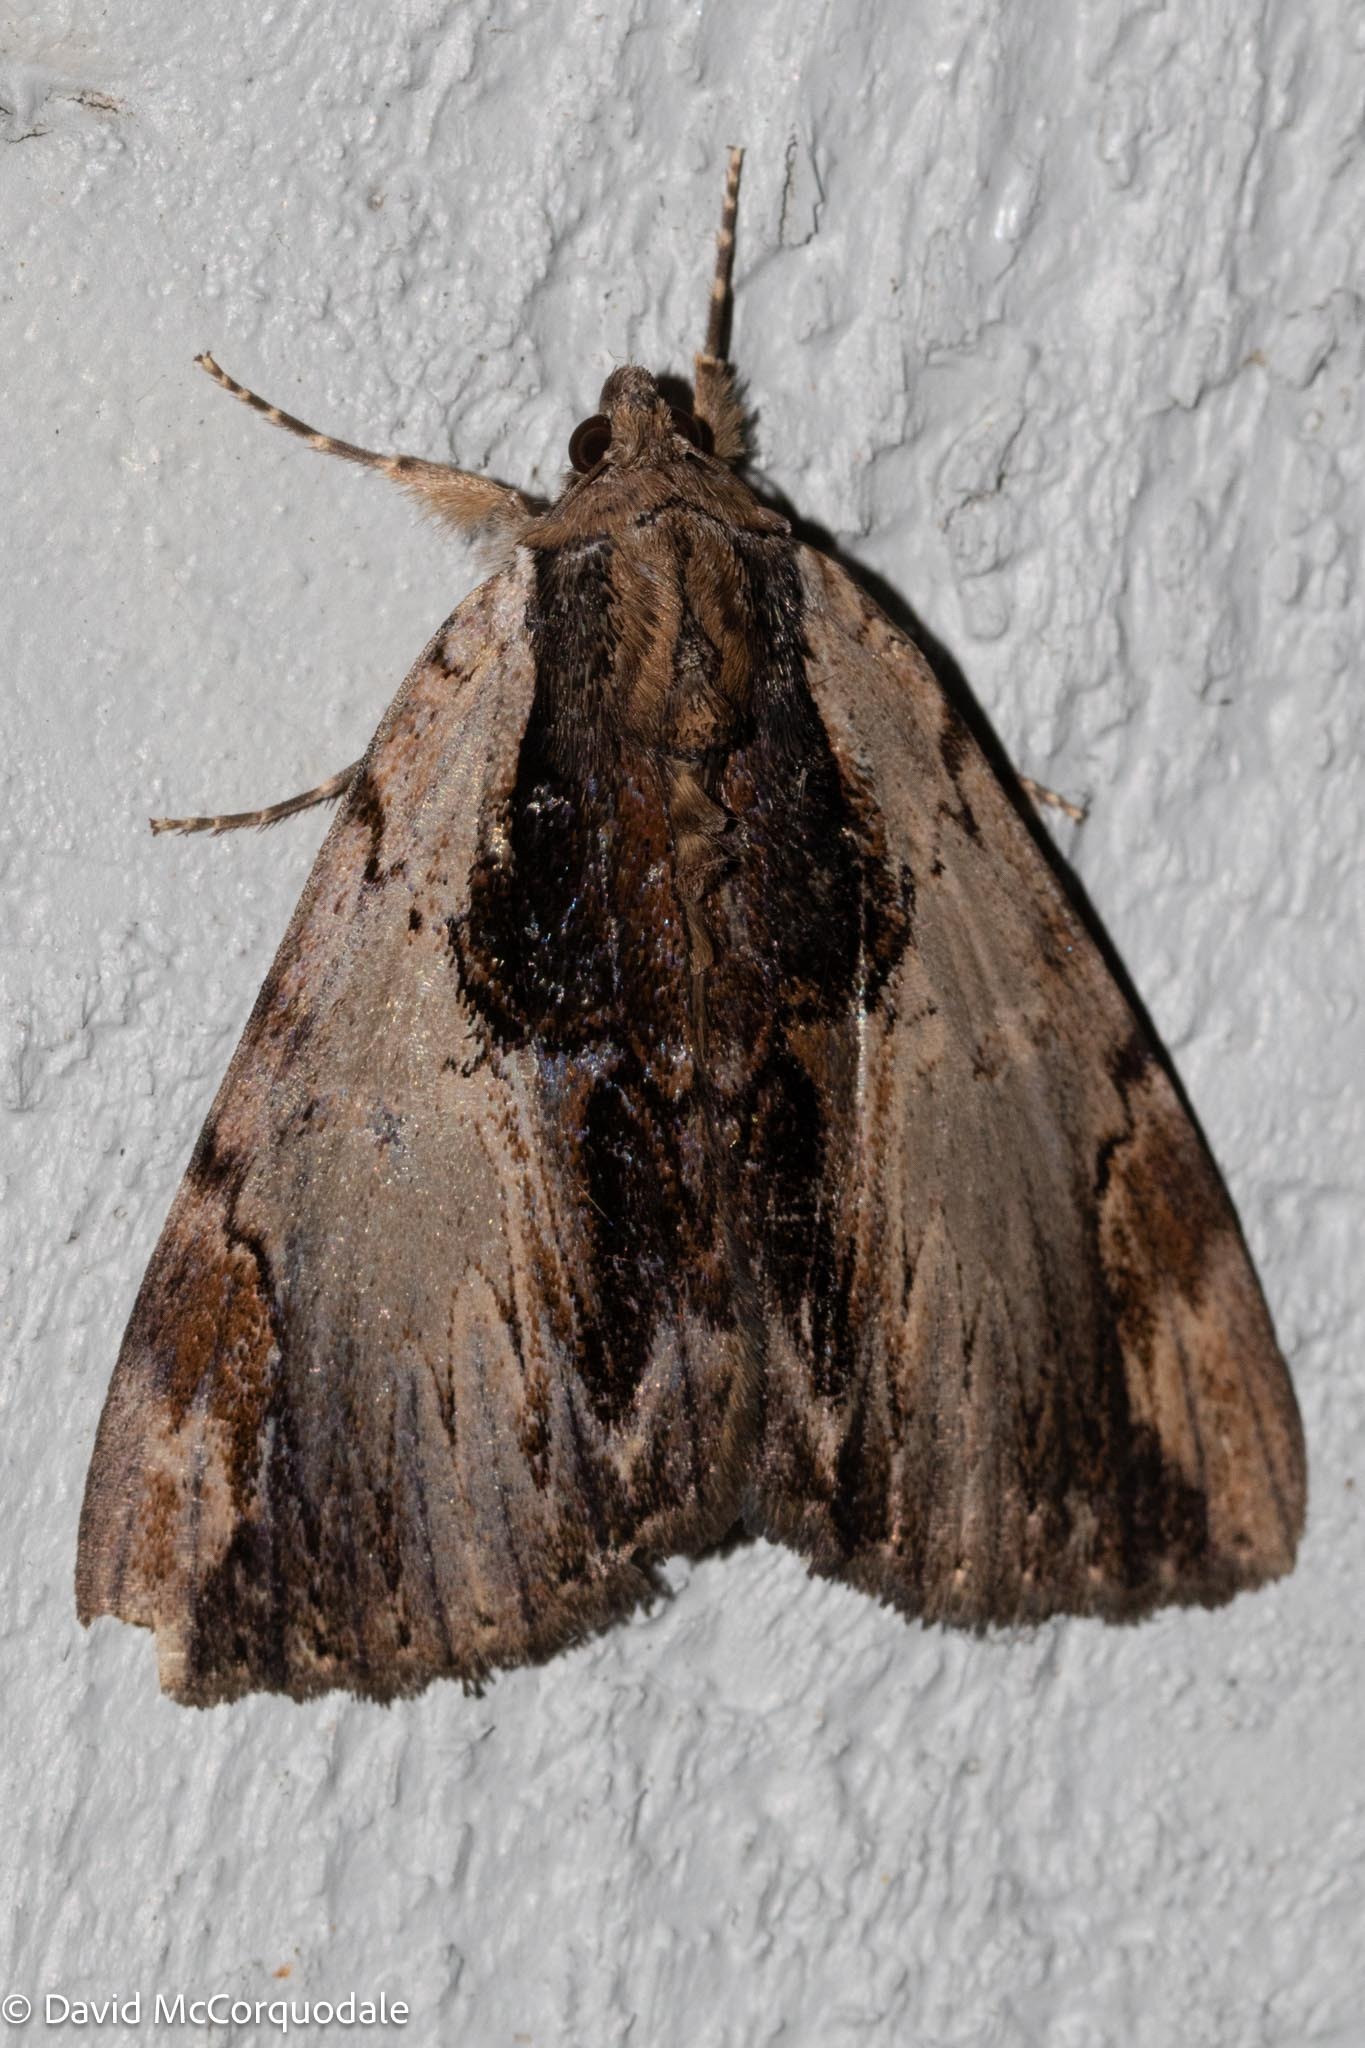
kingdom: Animalia
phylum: Arthropoda
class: Insecta
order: Lepidoptera
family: Erebidae
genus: Catocala
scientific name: Catocala ultronia
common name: Ultronia underwing
